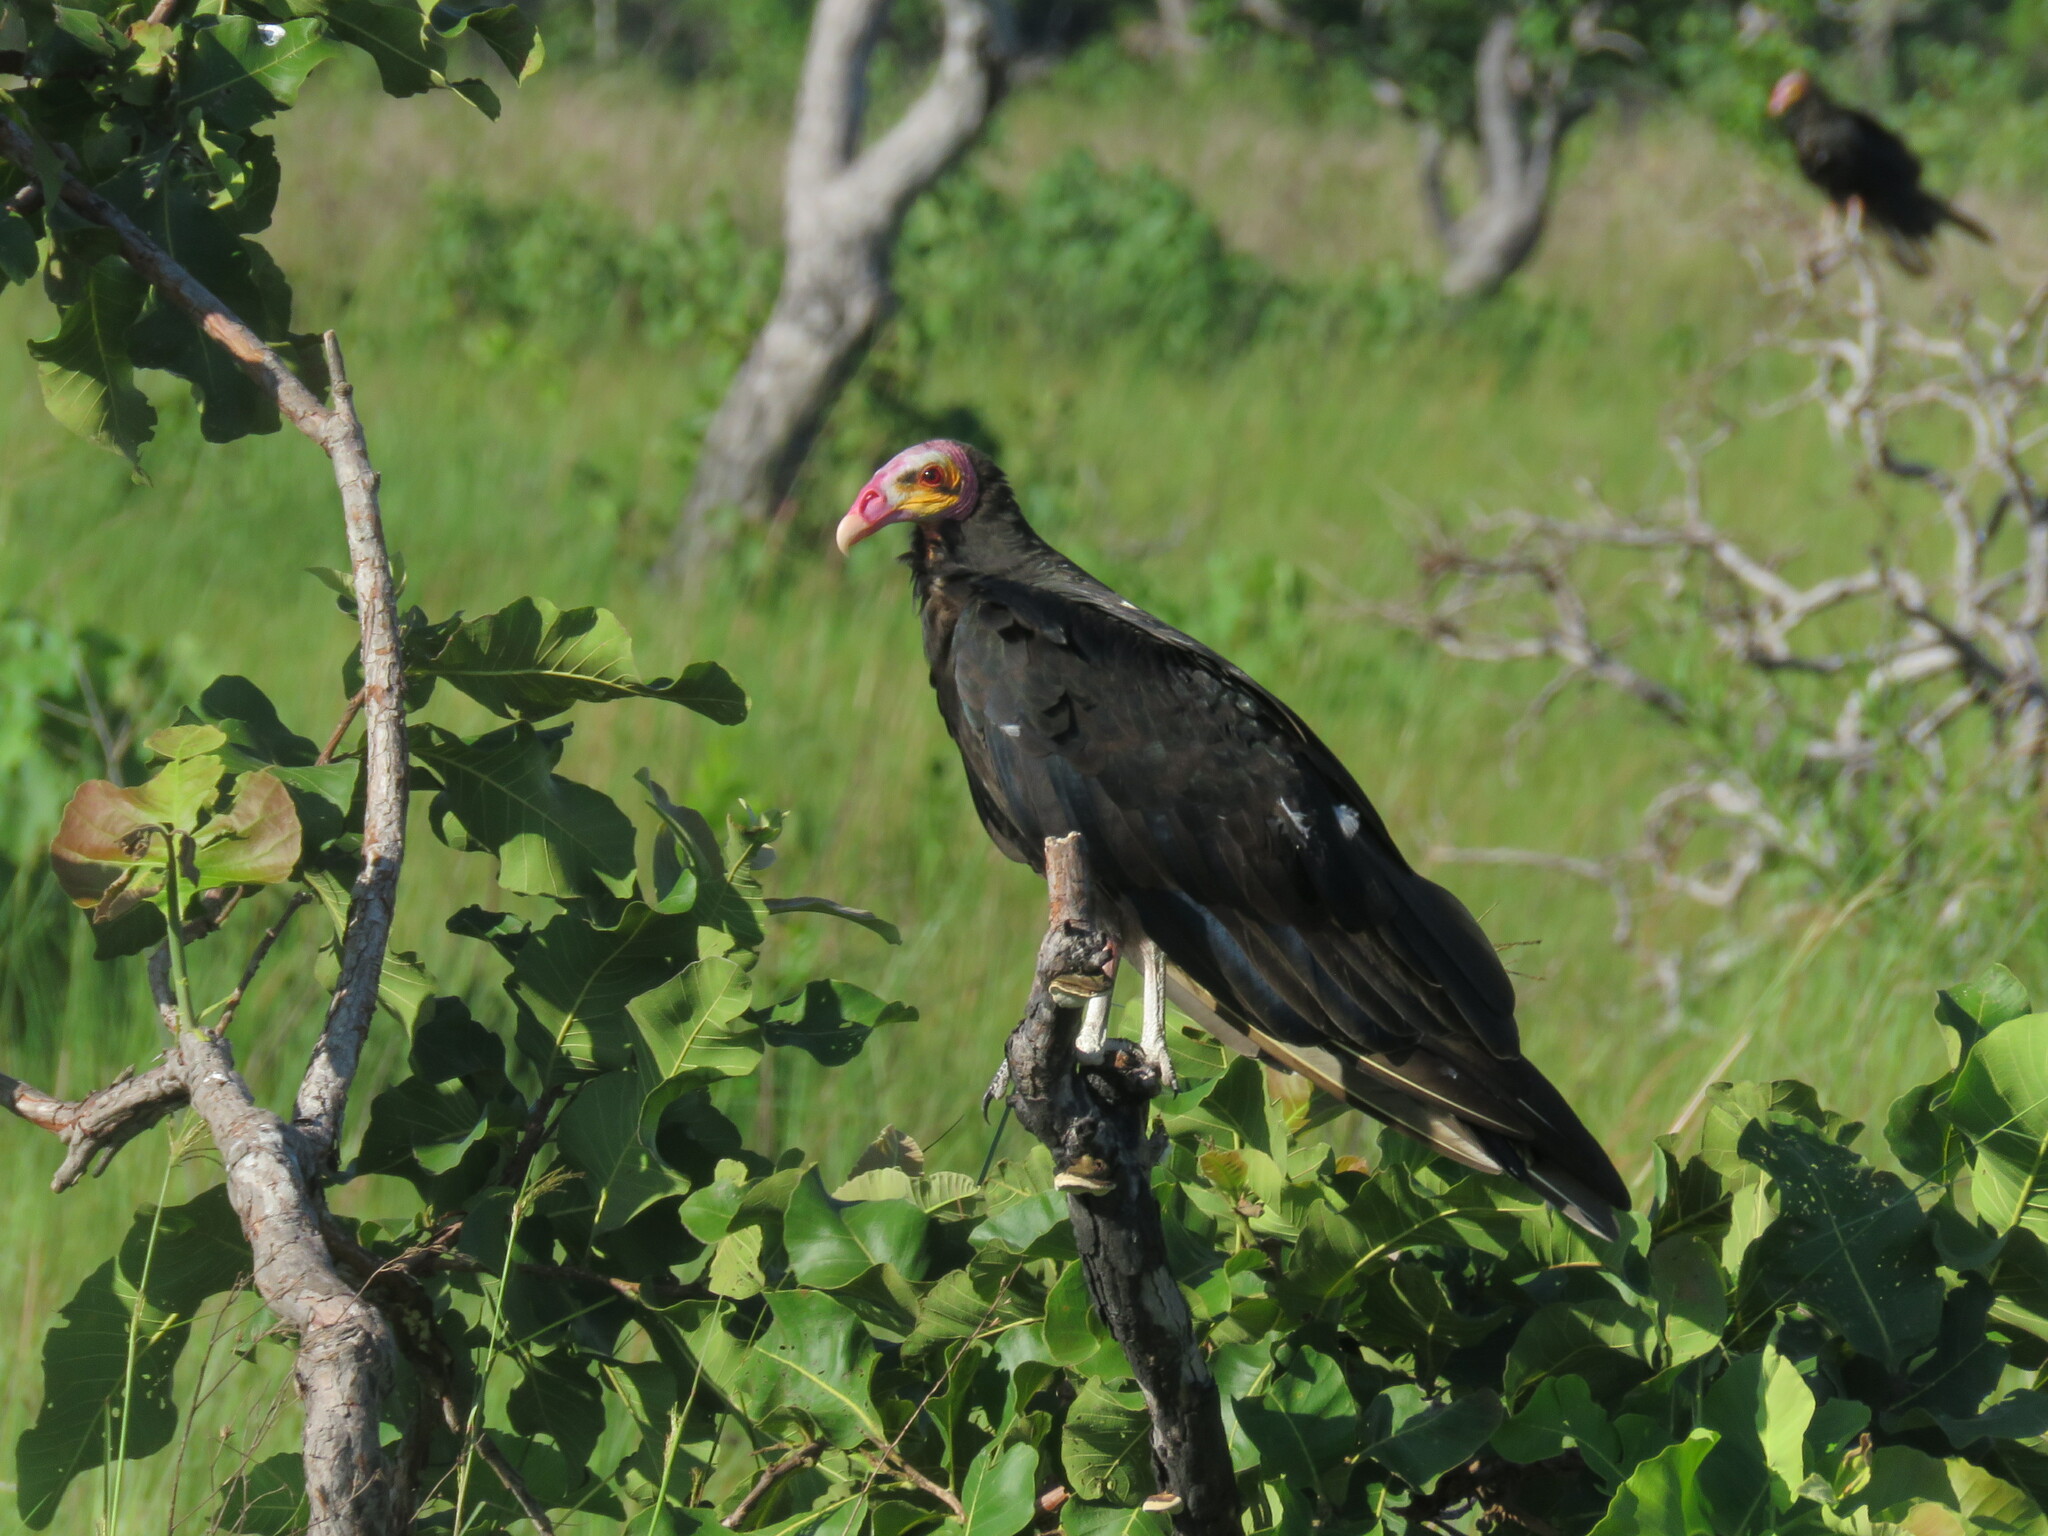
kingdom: Animalia
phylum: Chordata
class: Aves
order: Accipitriformes
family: Cathartidae
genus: Cathartes
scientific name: Cathartes burrovianus
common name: Lesser yellow-headed vulture
